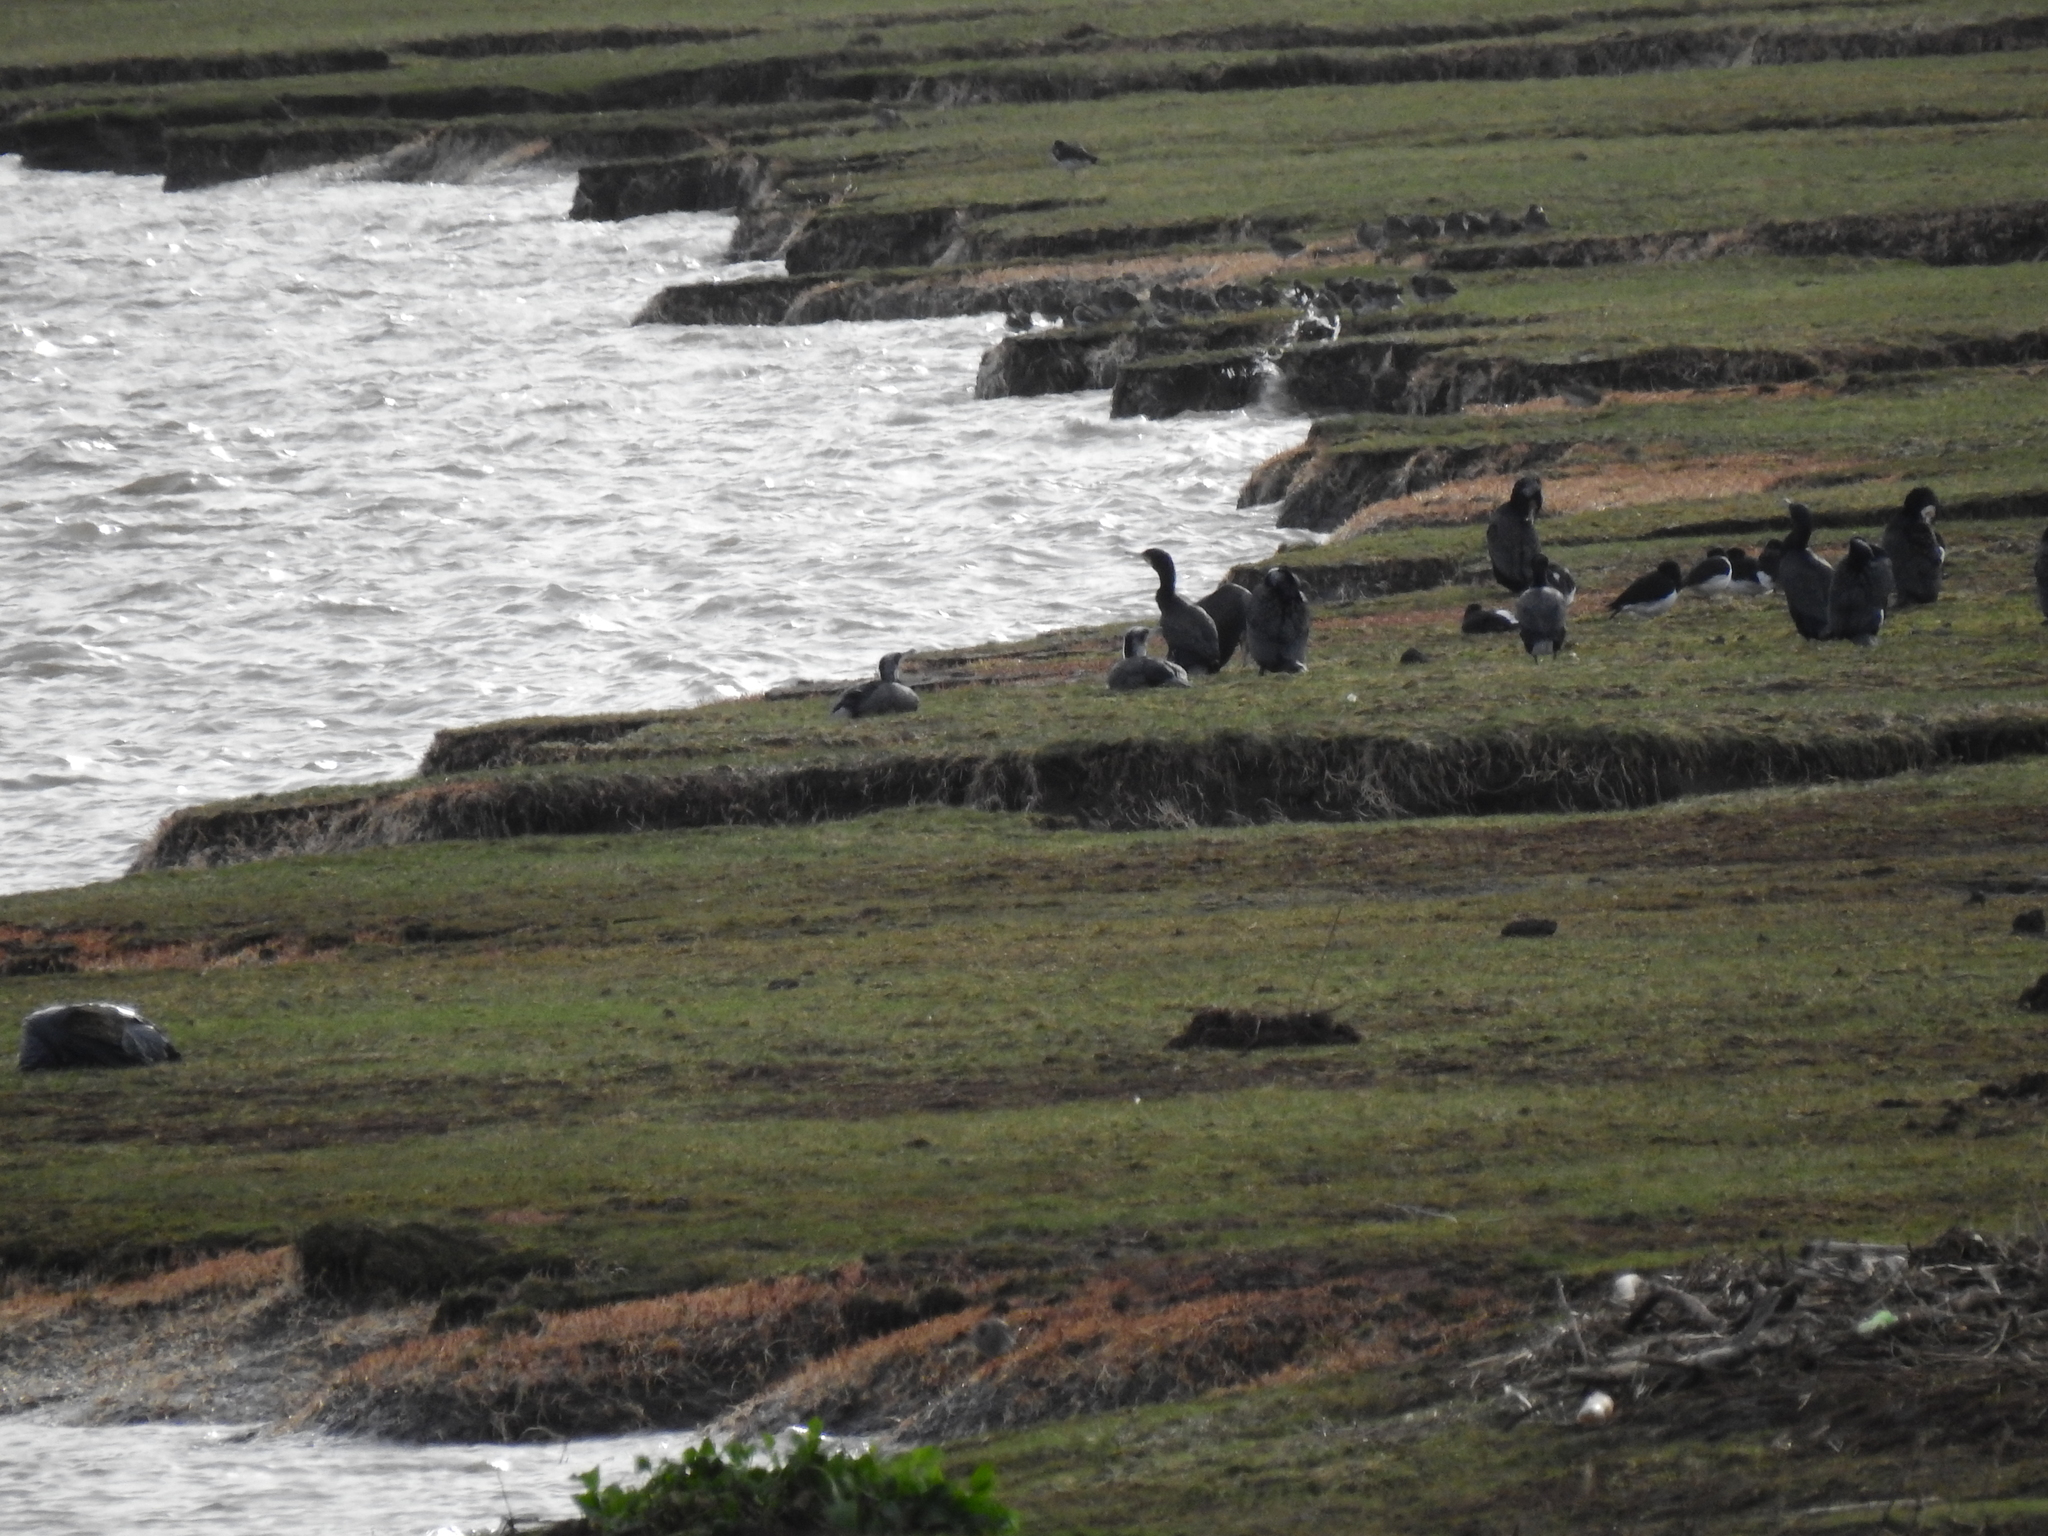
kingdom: Animalia
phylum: Chordata
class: Aves
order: Suliformes
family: Phalacrocoracidae
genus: Phalacrocorax
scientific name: Phalacrocorax carbo
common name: Great cormorant
